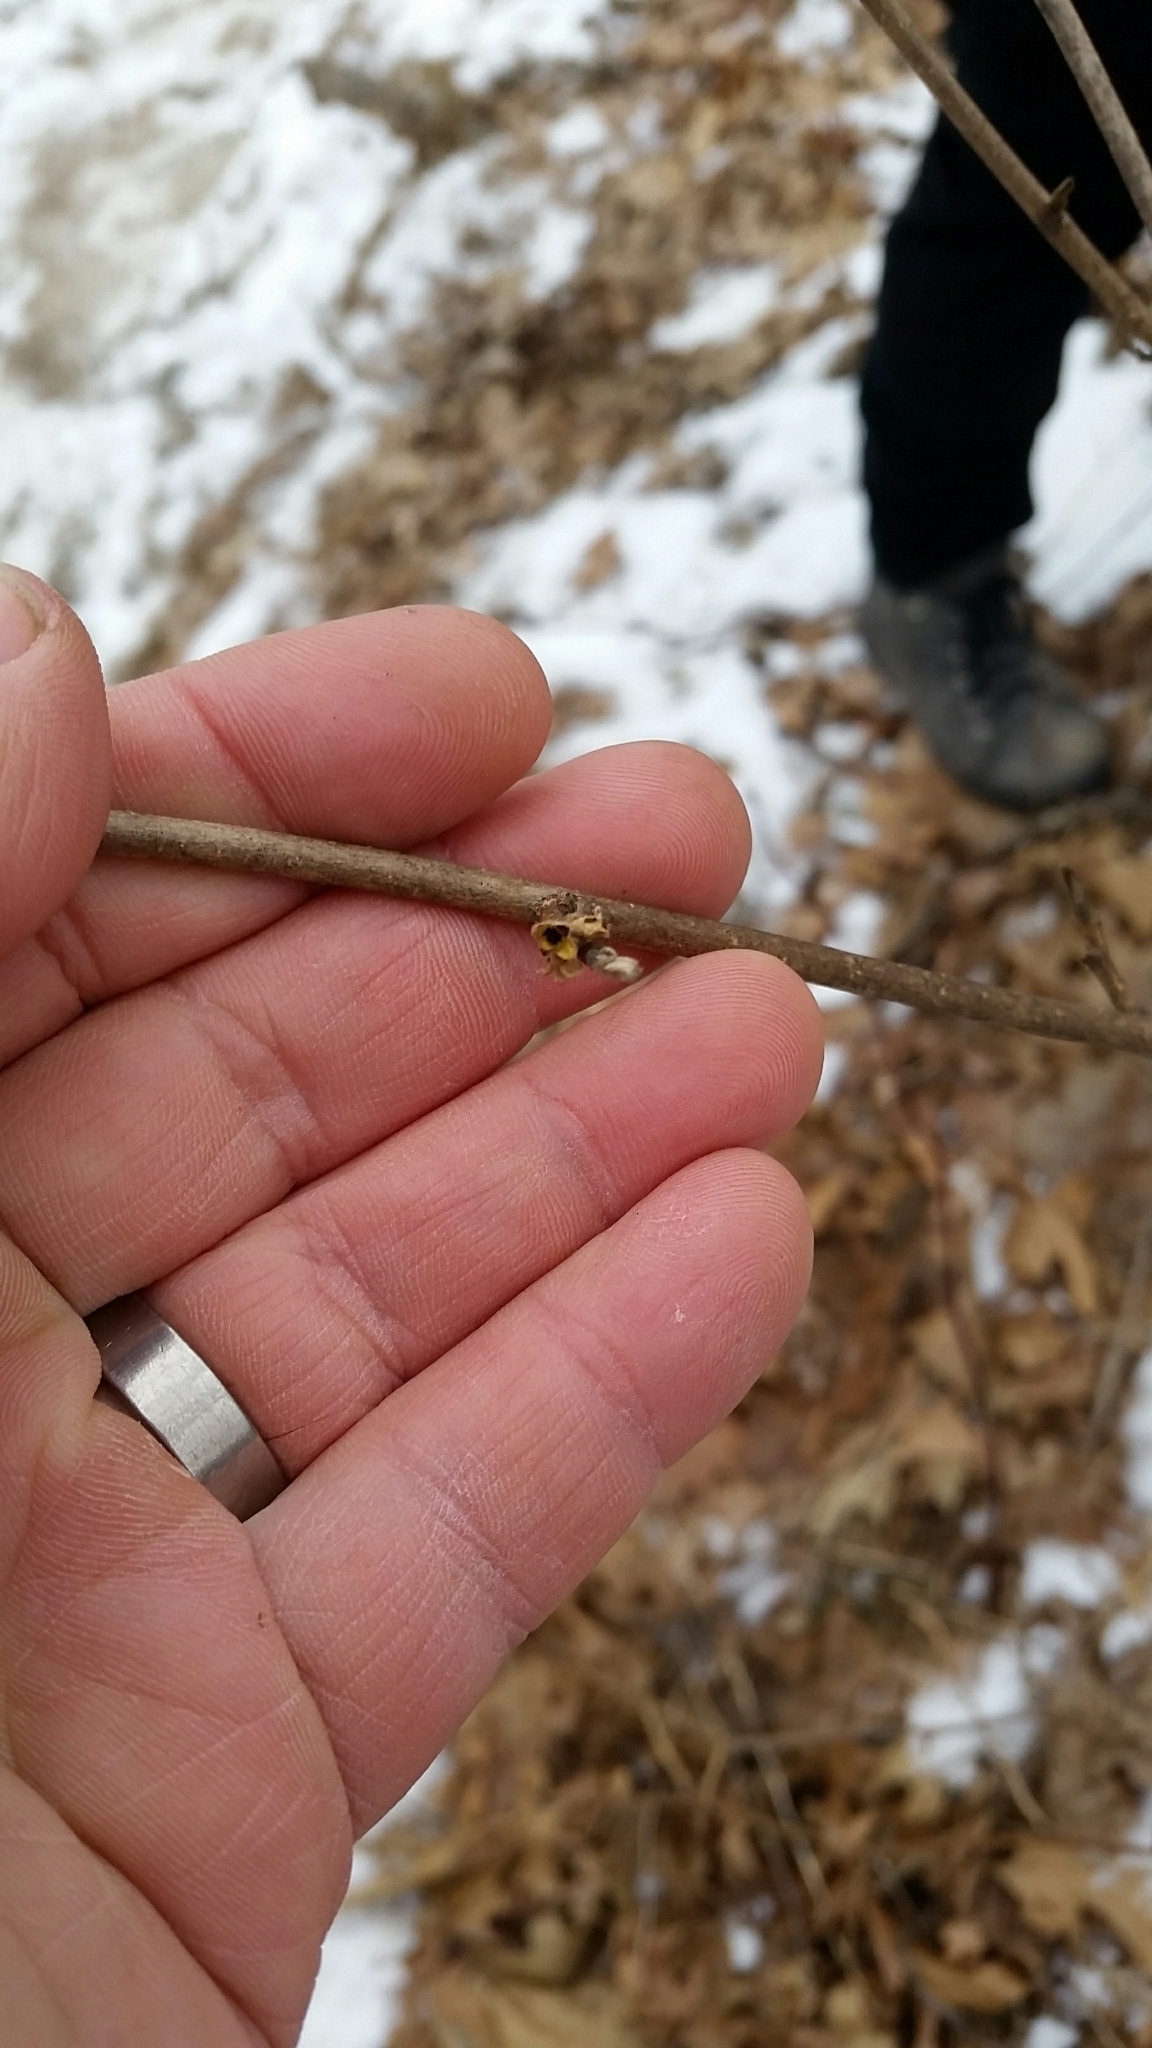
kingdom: Plantae
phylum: Tracheophyta
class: Magnoliopsida
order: Saxifragales
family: Hamamelidaceae
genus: Hamamelis
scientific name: Hamamelis virginiana
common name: Witch-hazel
